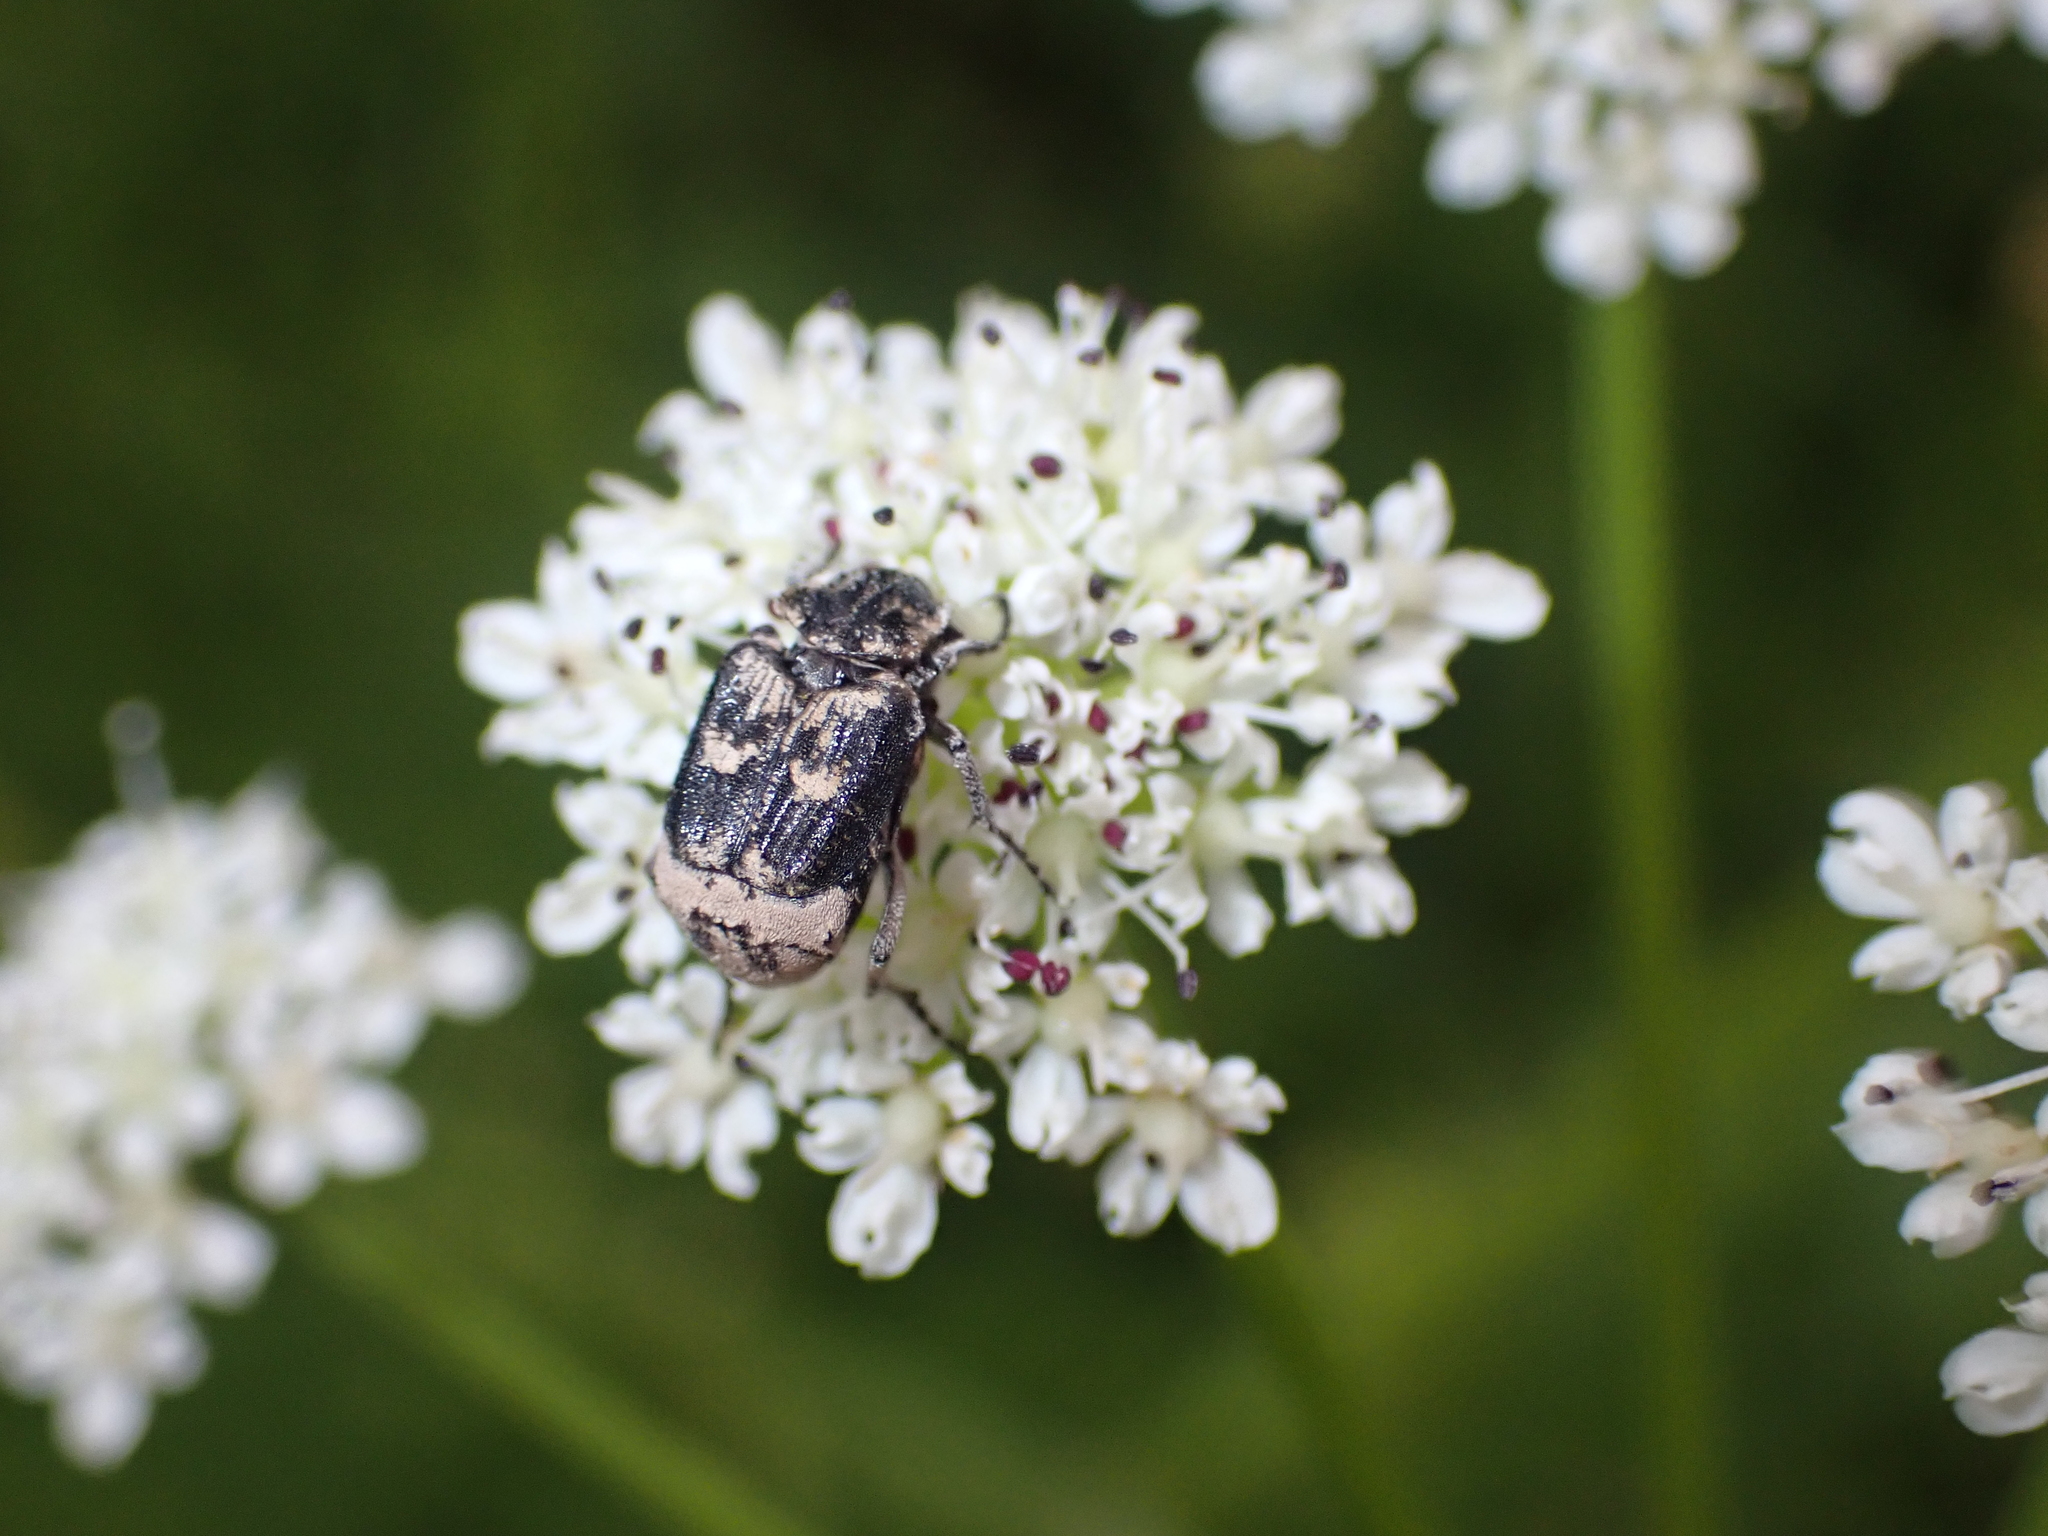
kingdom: Animalia
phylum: Arthropoda
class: Insecta
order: Coleoptera
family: Scarabaeidae
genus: Valgus
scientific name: Valgus hemipterus
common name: Bug flower chafer
